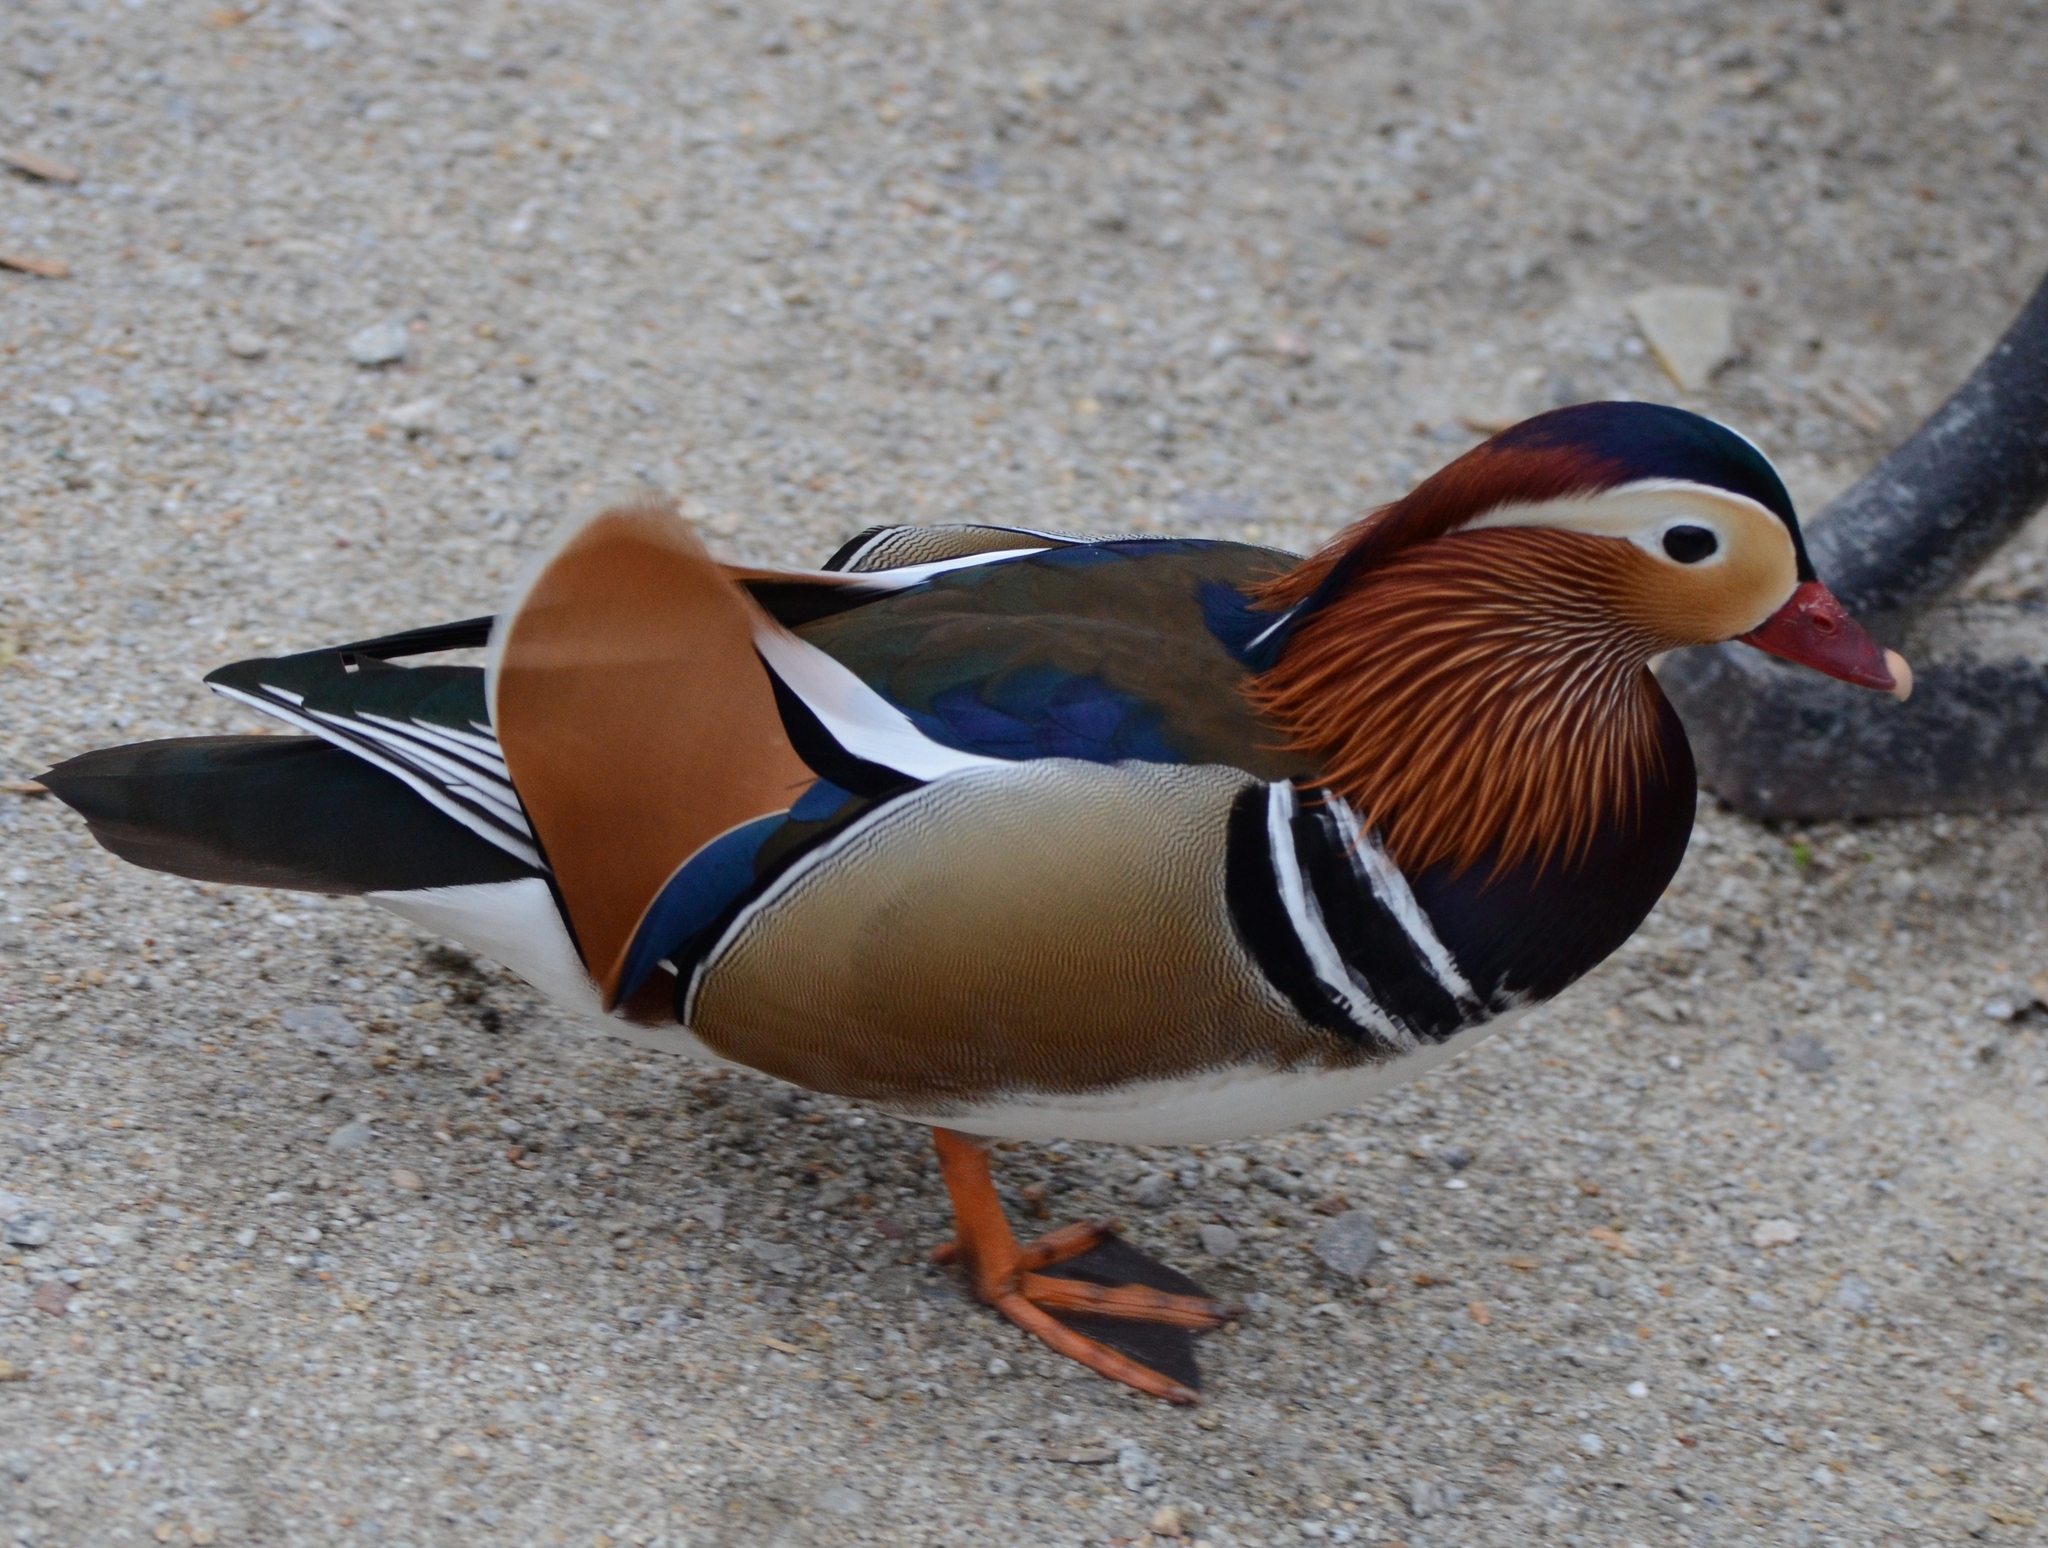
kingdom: Animalia
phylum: Chordata
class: Aves
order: Anseriformes
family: Anatidae
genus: Aix
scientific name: Aix galericulata
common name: Mandarin duck
